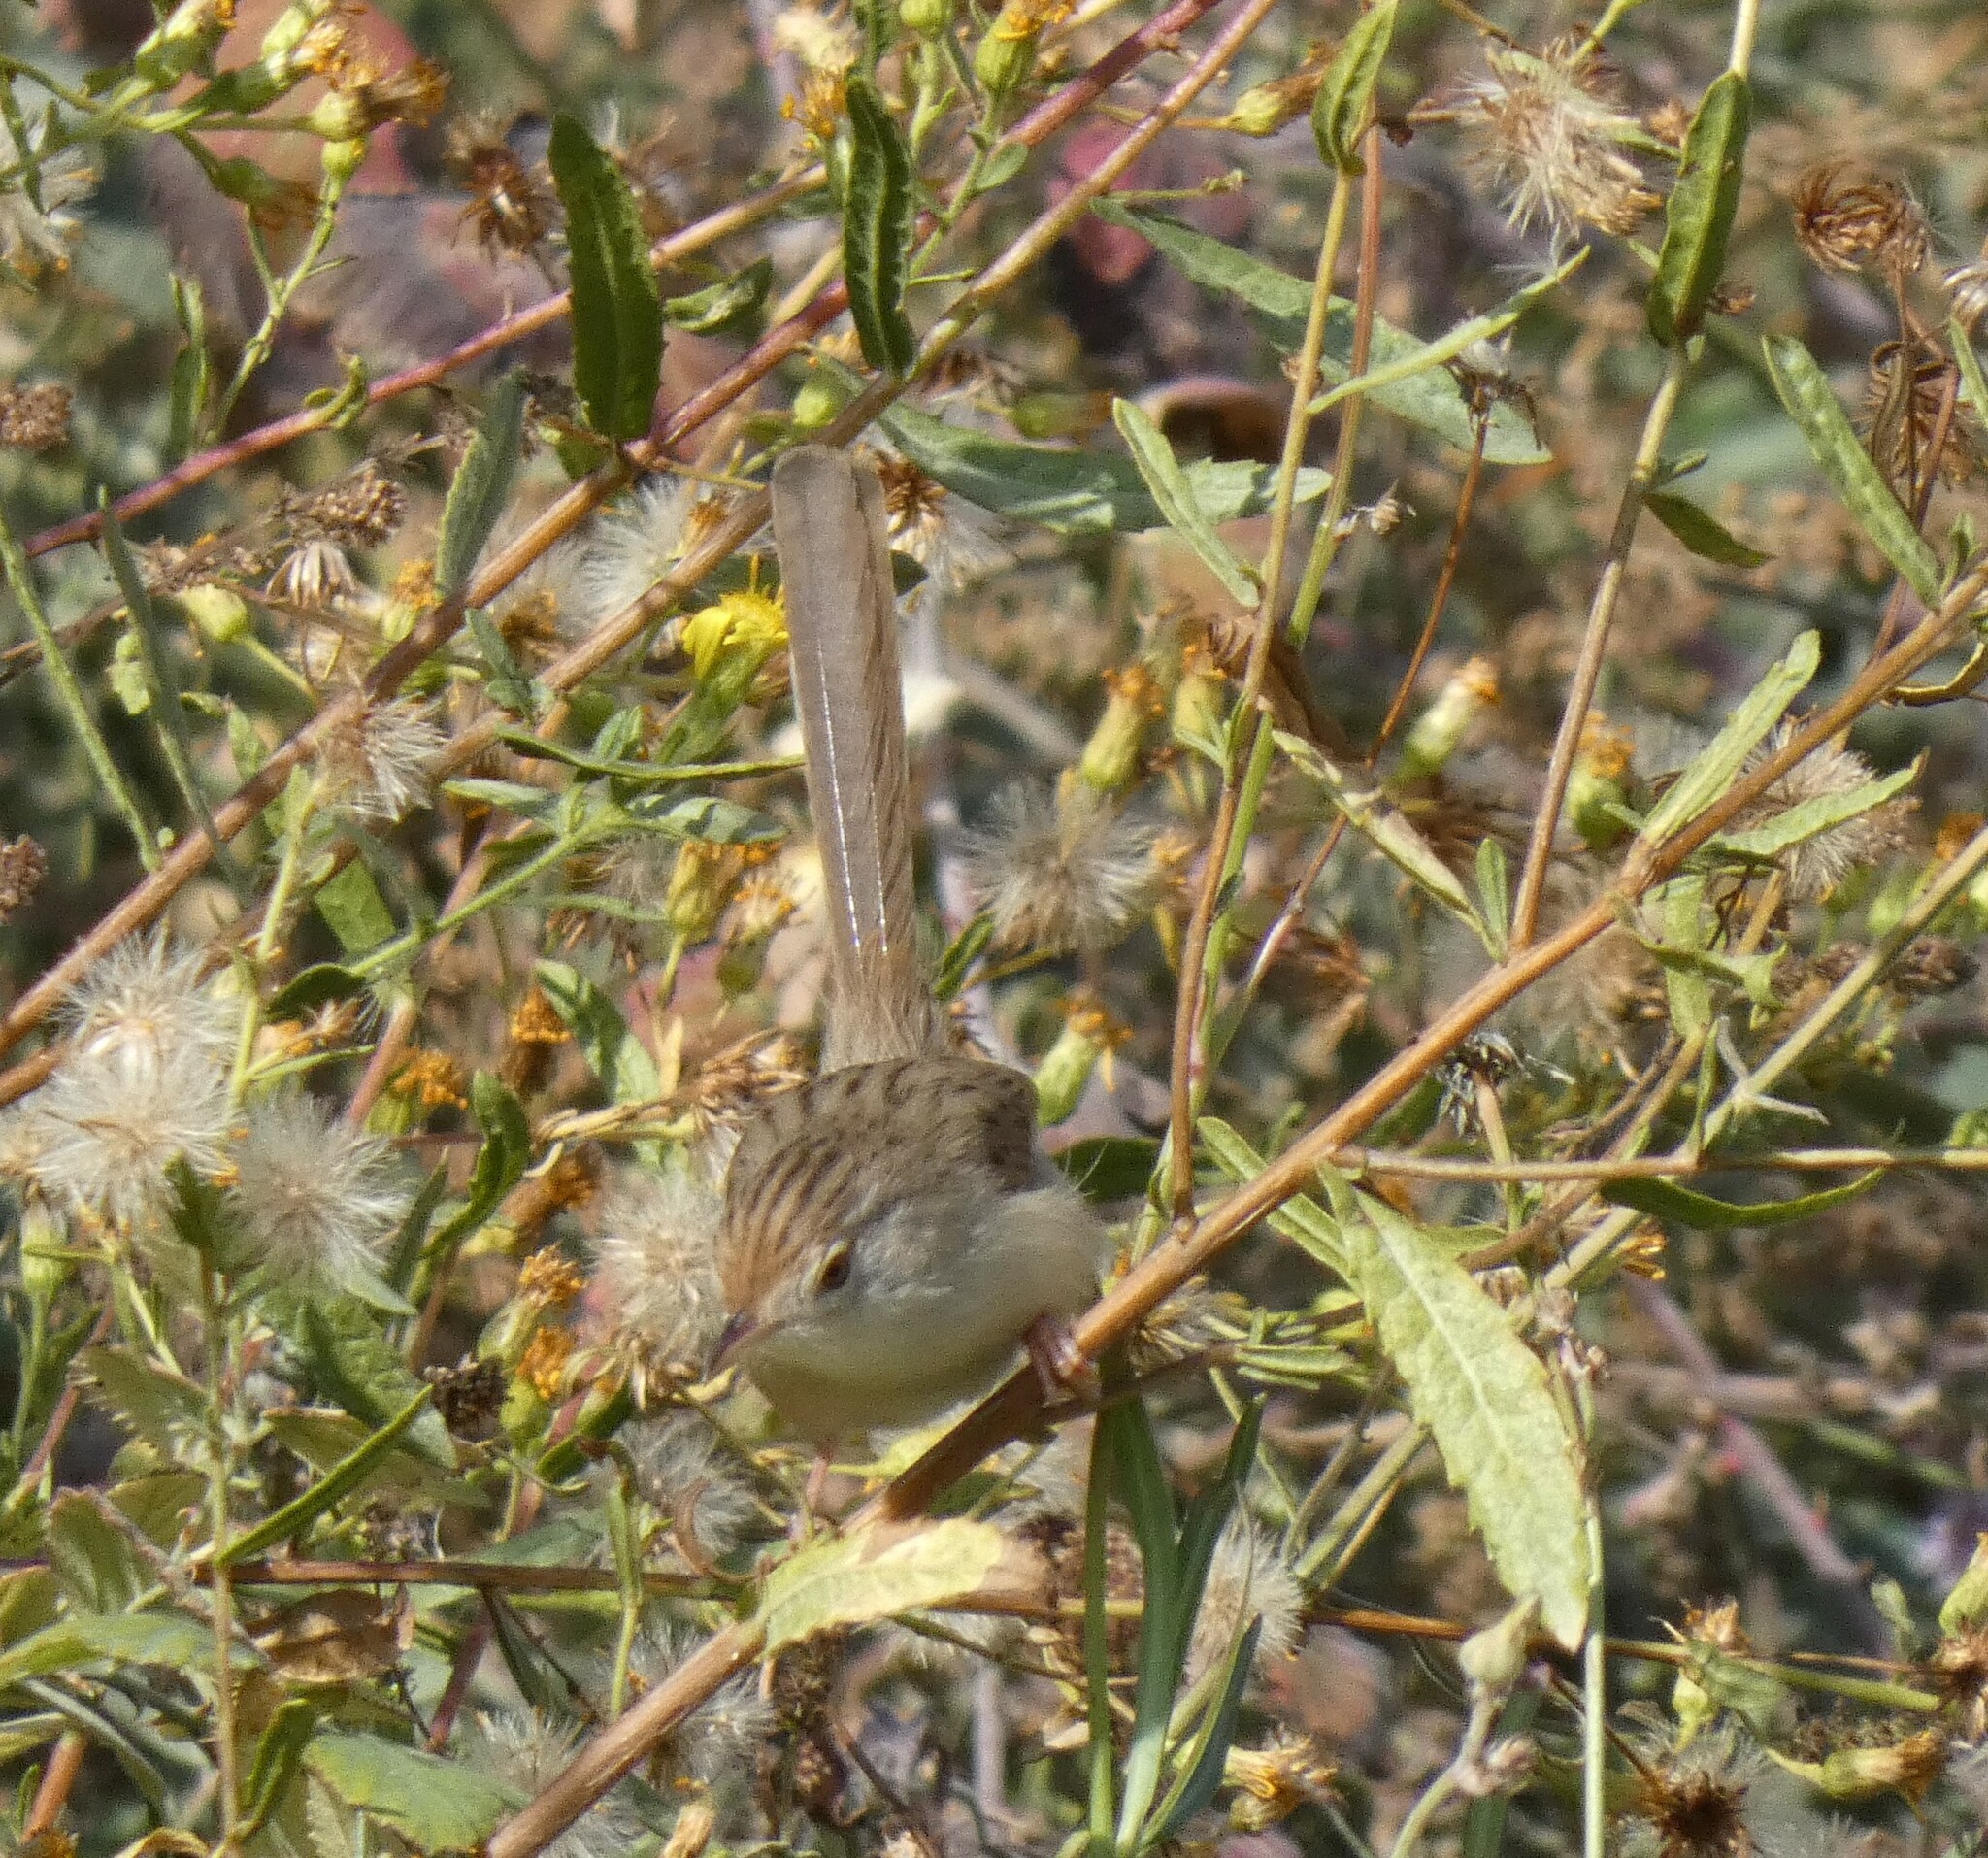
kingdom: Animalia
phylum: Chordata
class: Aves
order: Passeriformes
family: Cisticolidae
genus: Prinia
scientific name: Prinia gracilis
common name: Graceful prinia
